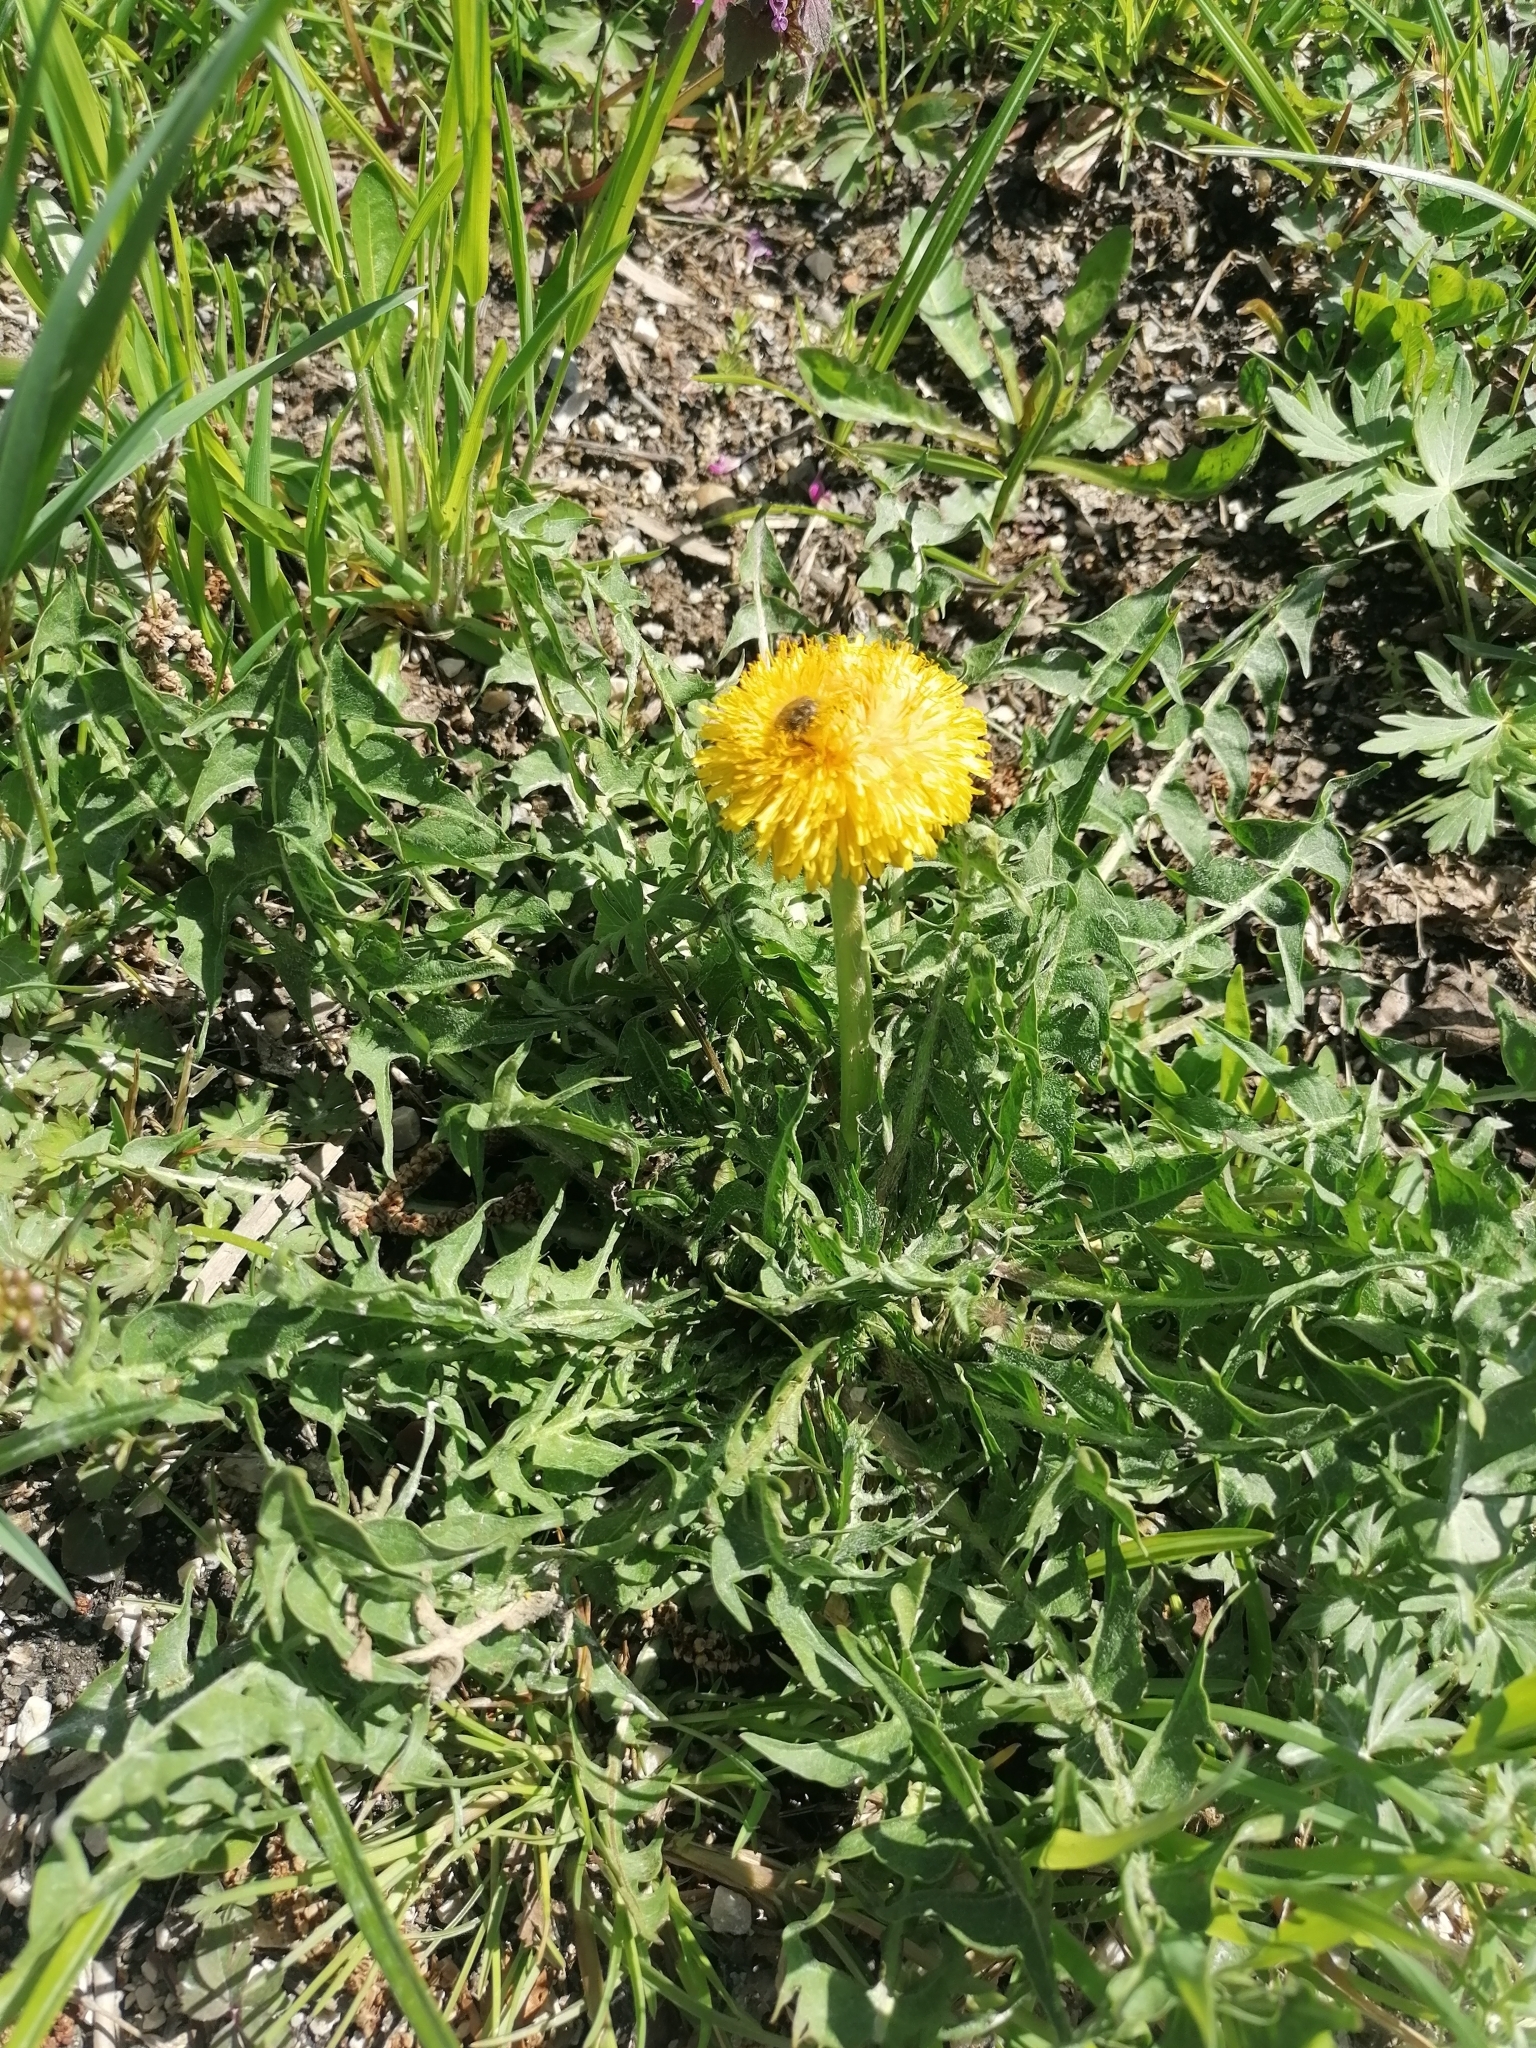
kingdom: Plantae
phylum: Tracheophyta
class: Magnoliopsida
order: Asterales
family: Asteraceae
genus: Taraxacum
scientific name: Taraxacum officinale
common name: Common dandelion
